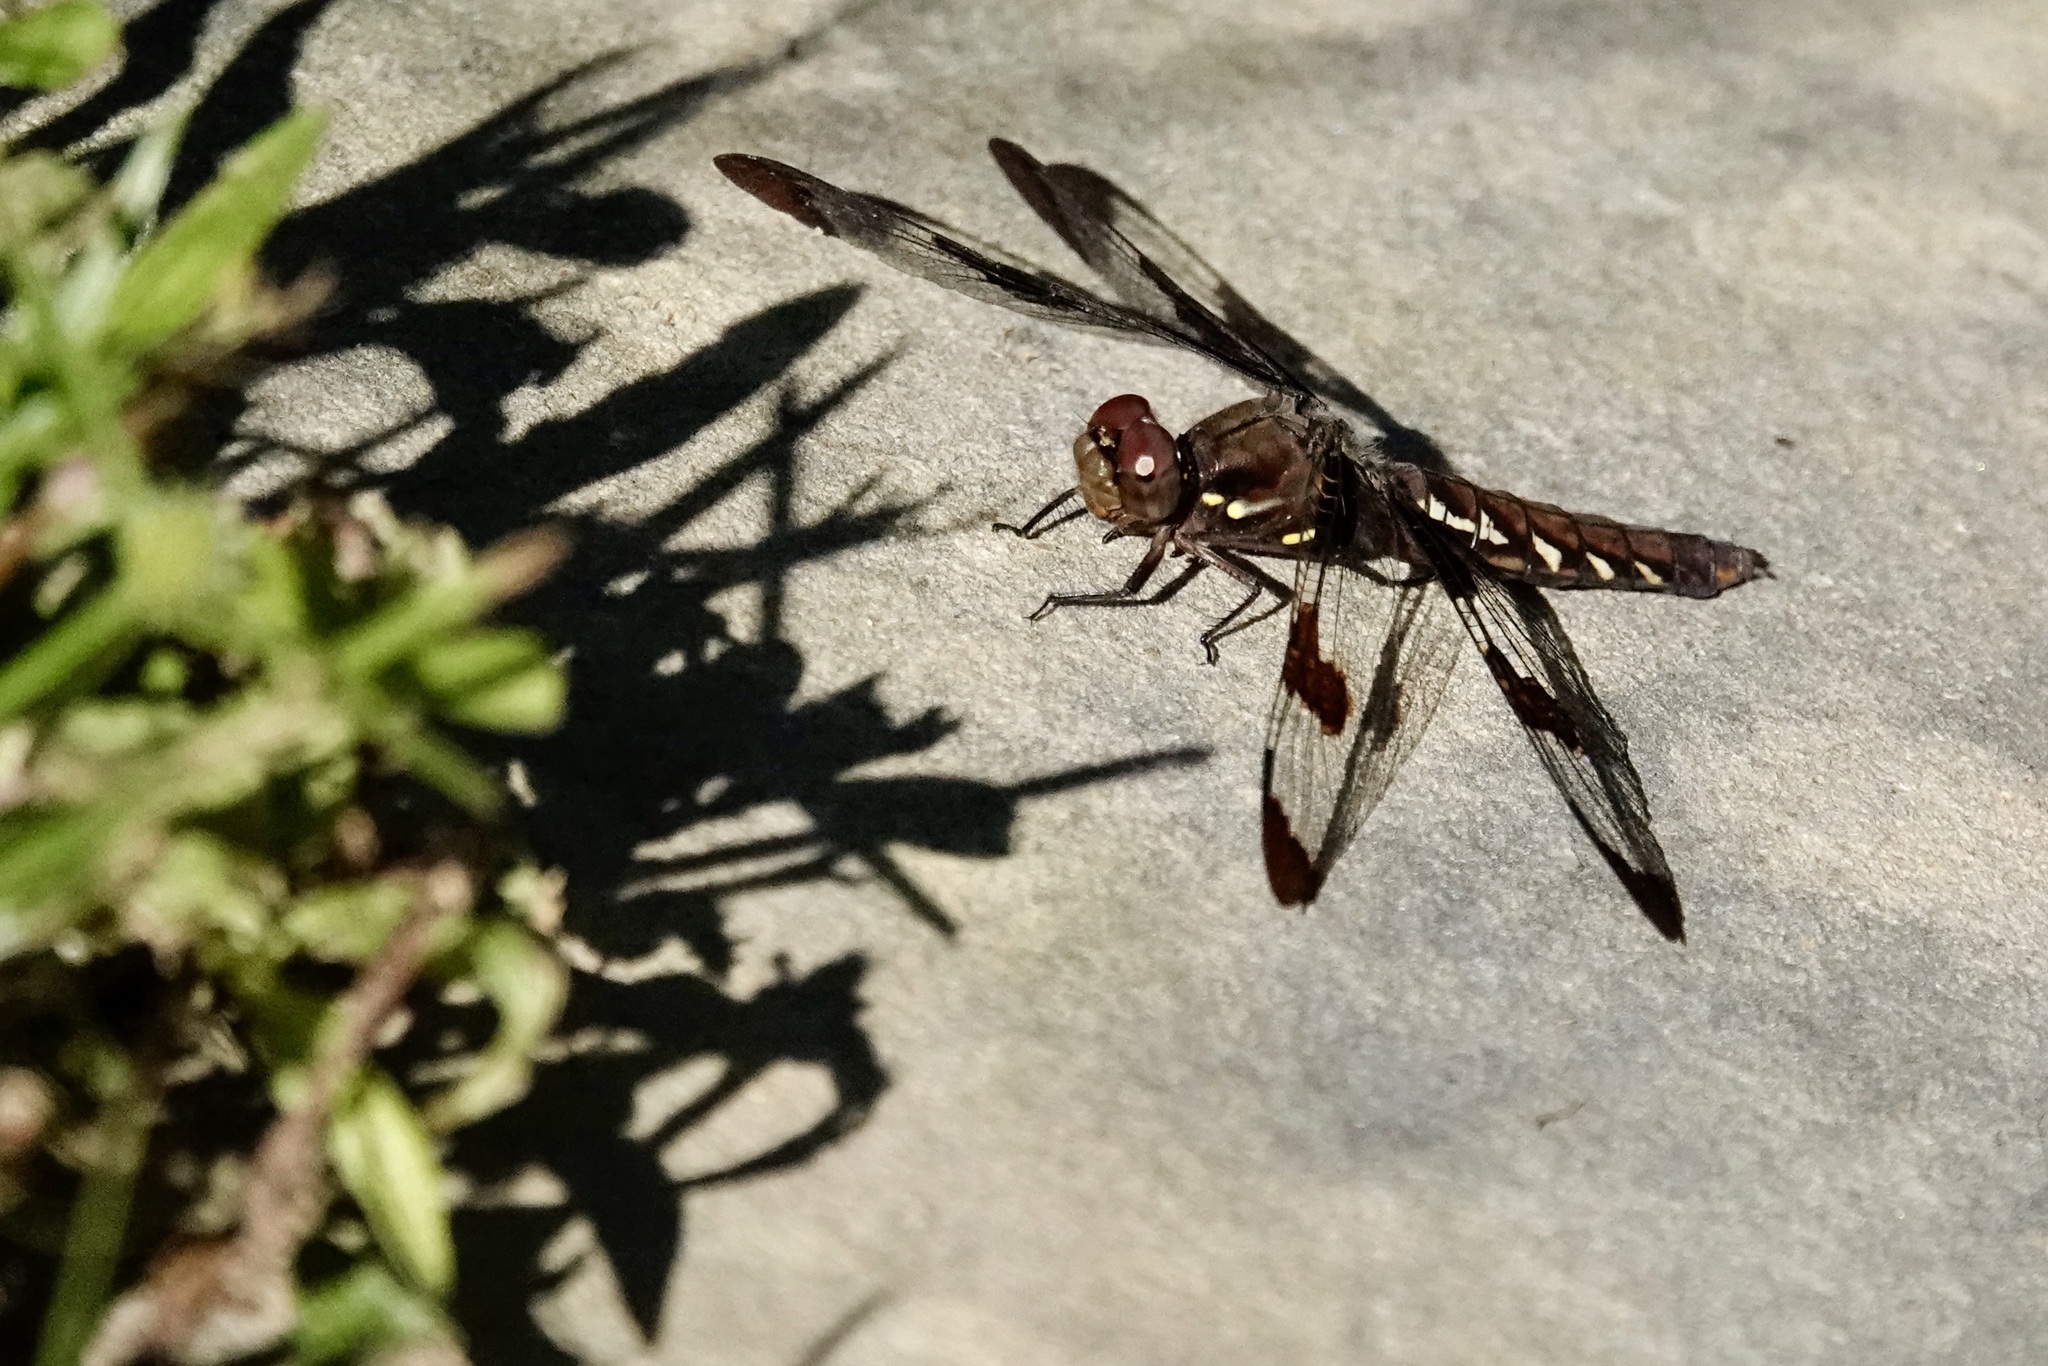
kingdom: Animalia
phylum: Arthropoda
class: Insecta
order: Odonata
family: Libellulidae
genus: Plathemis
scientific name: Plathemis lydia
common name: Common whitetail
